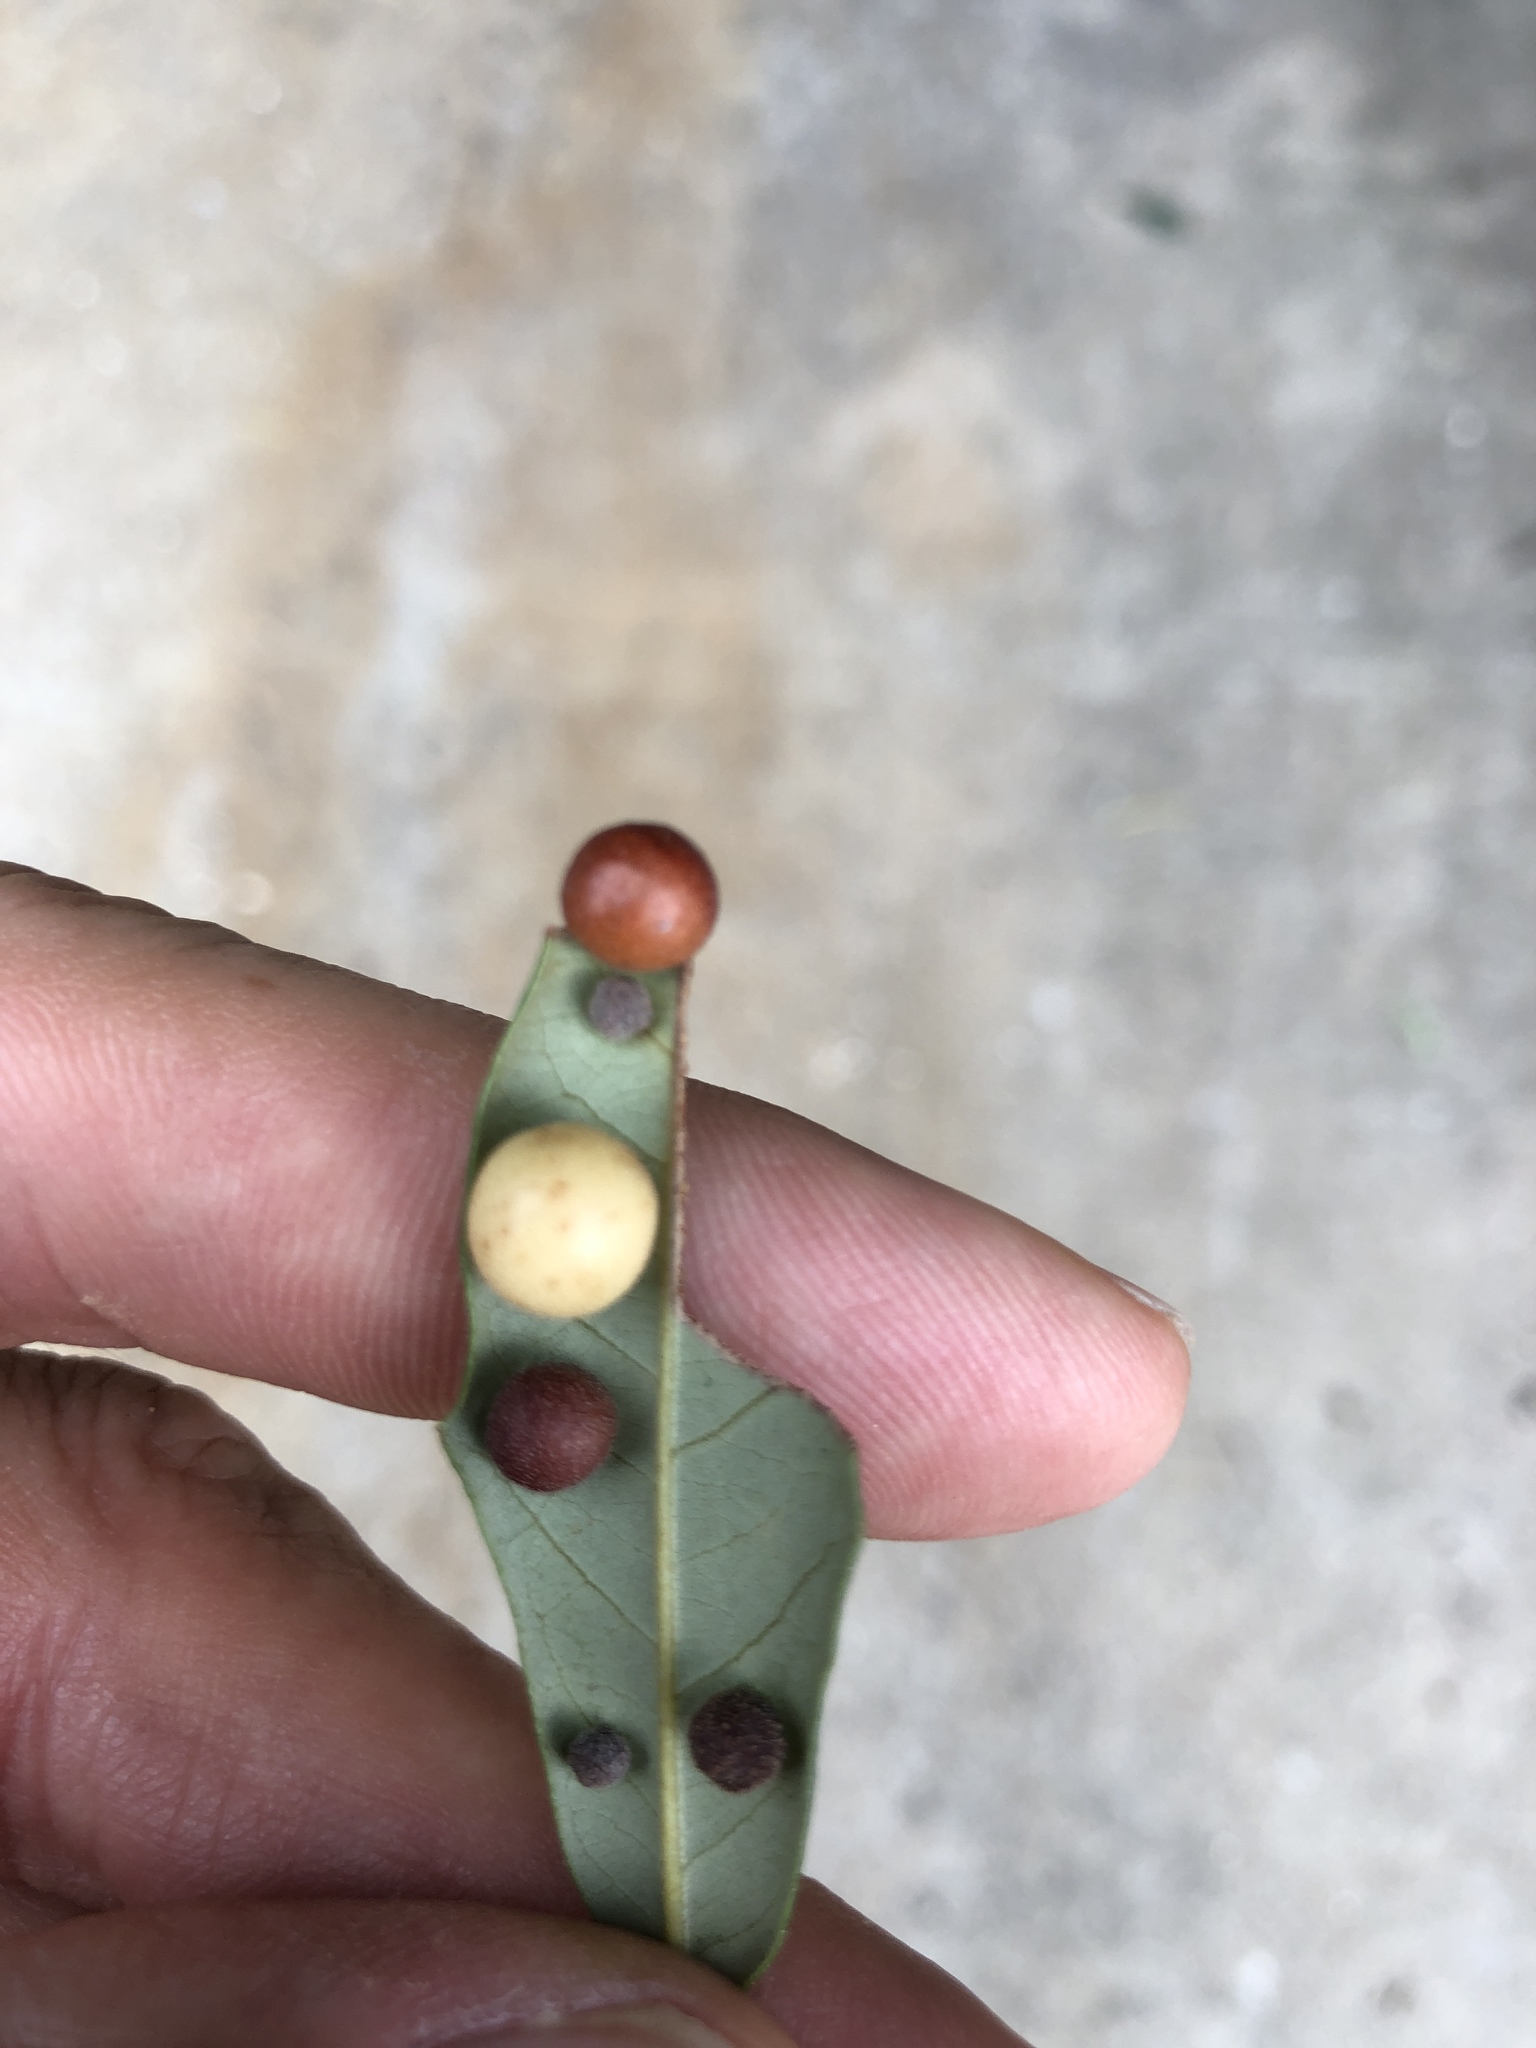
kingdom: Animalia
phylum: Arthropoda
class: Insecta
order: Hymenoptera
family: Cynipidae
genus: Belonocnema
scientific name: Belonocnema kinseyi
